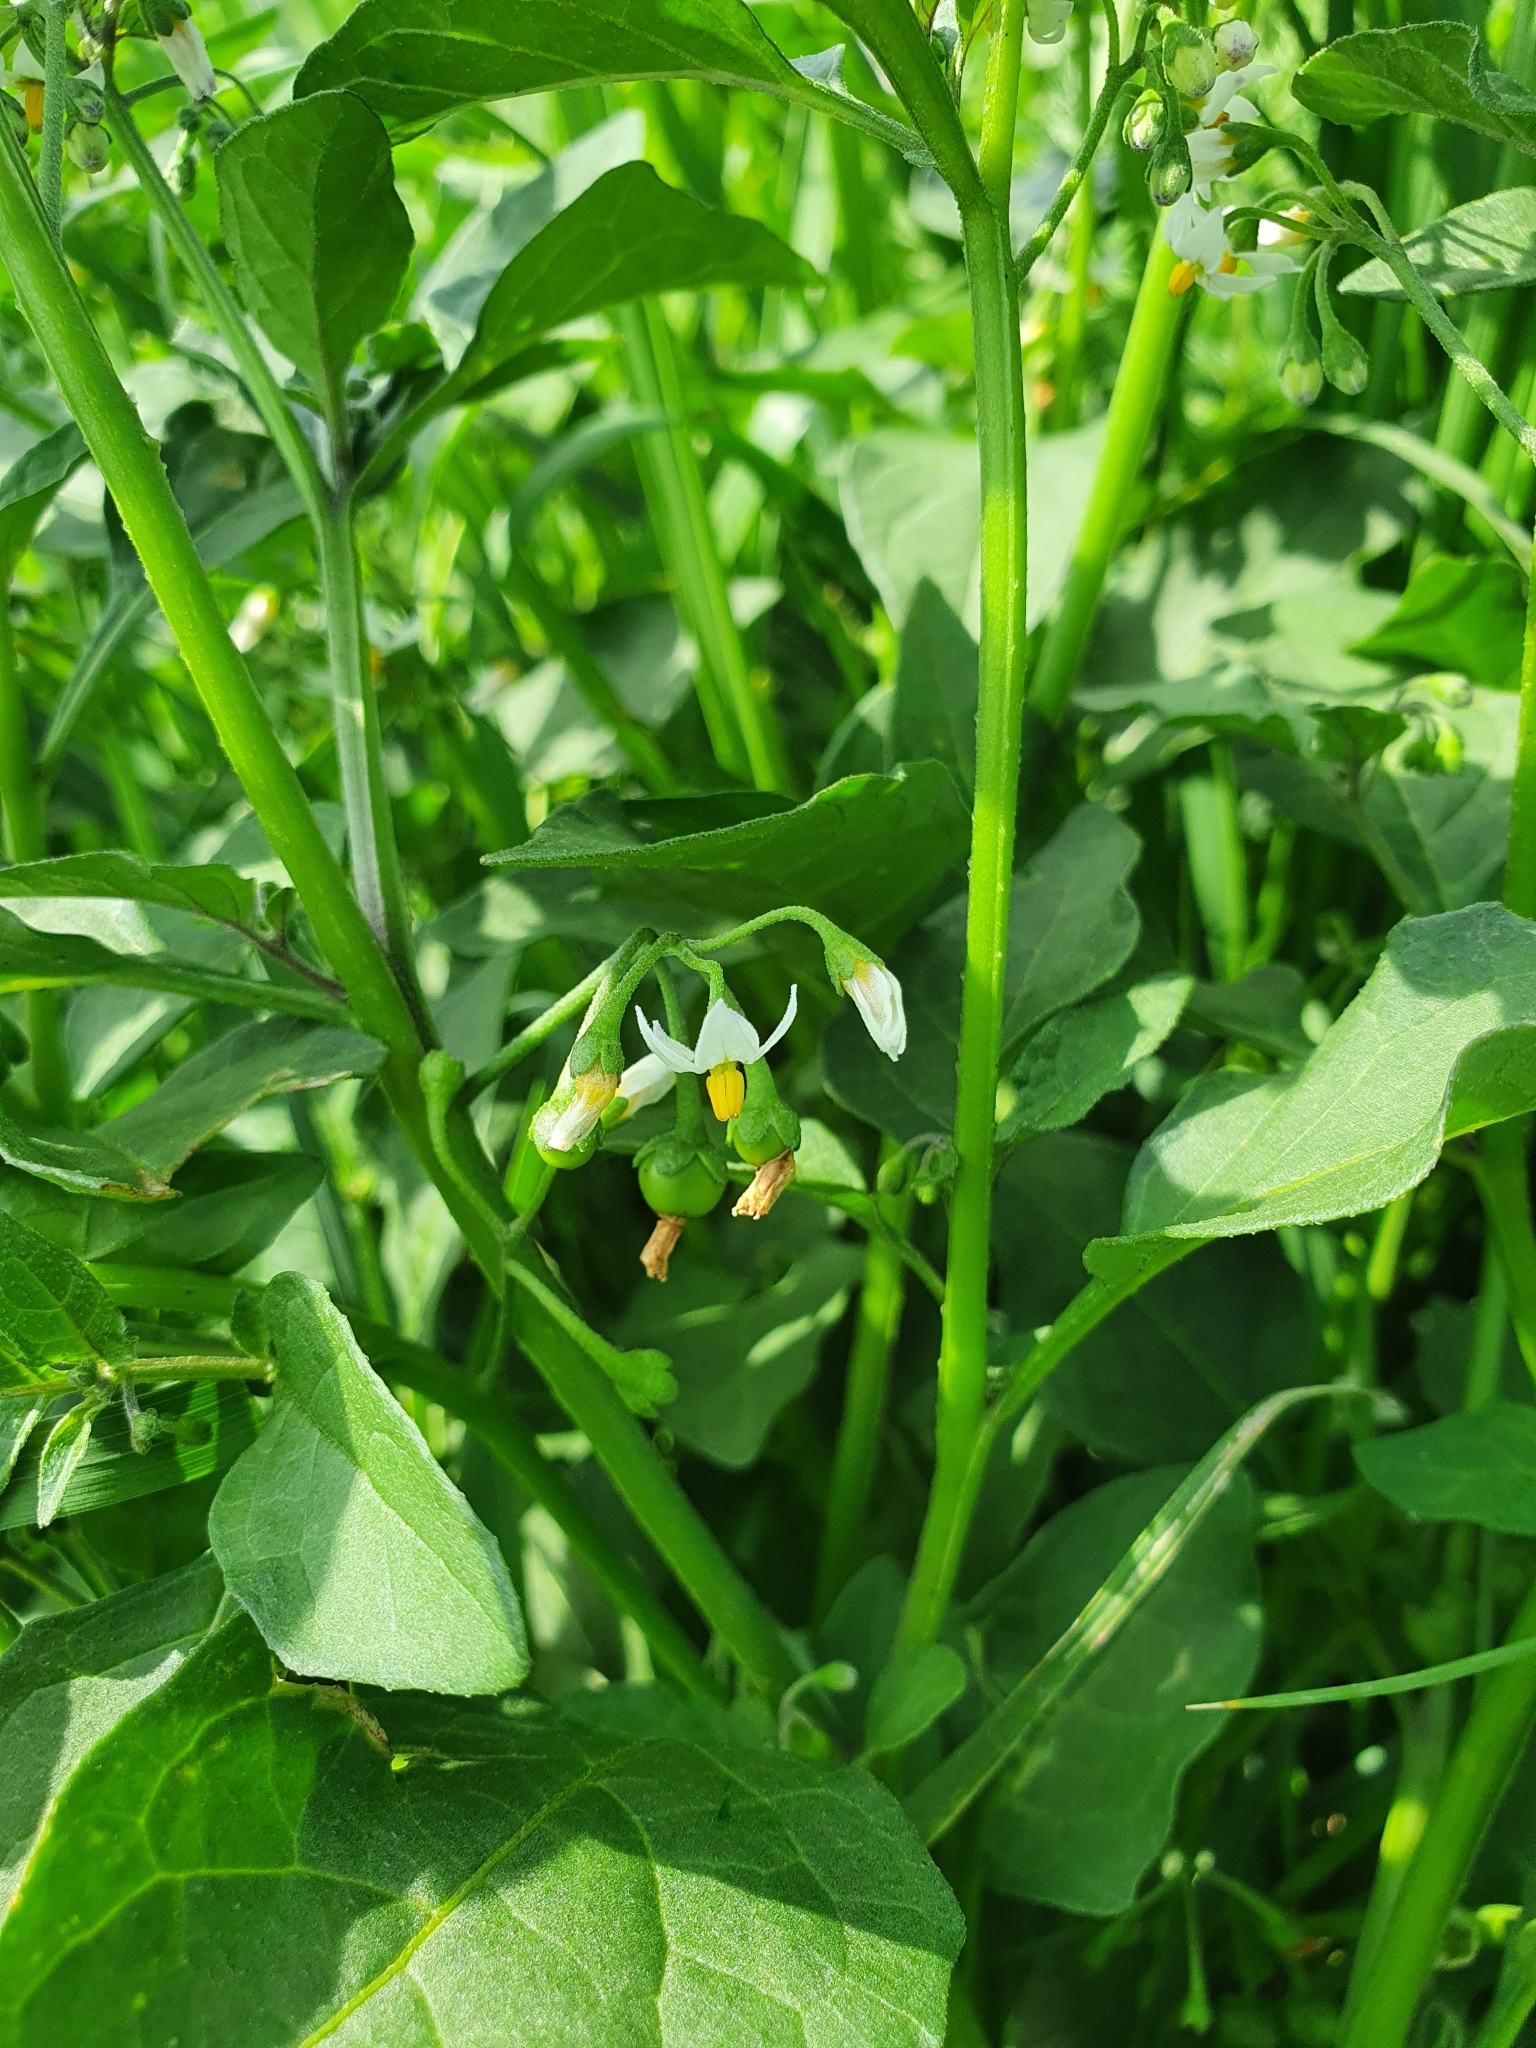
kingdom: Plantae
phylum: Tracheophyta
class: Magnoliopsida
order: Solanales
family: Solanaceae
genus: Solanum
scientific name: Solanum nigrum
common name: Black nightshade
